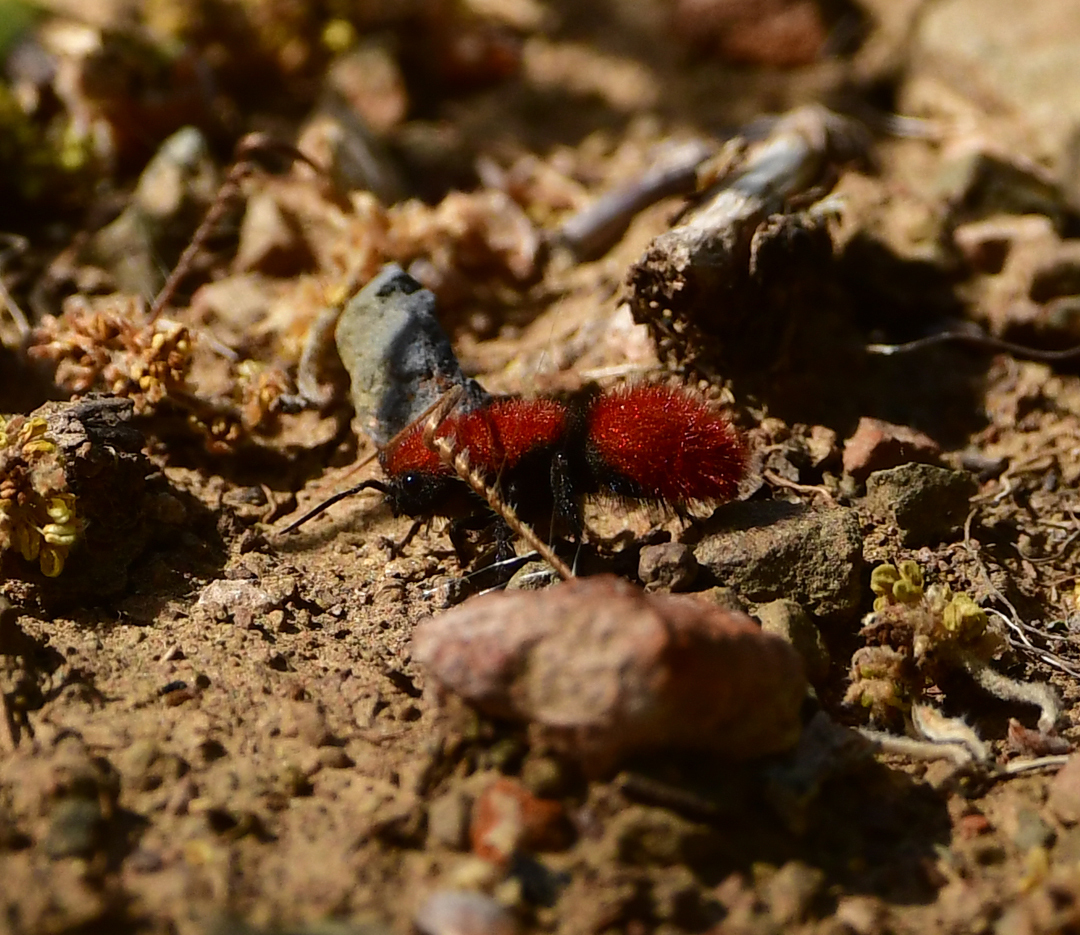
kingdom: Animalia
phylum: Arthropoda
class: Insecta
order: Hymenoptera
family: Mutillidae
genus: Dasymutilla
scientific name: Dasymutilla
